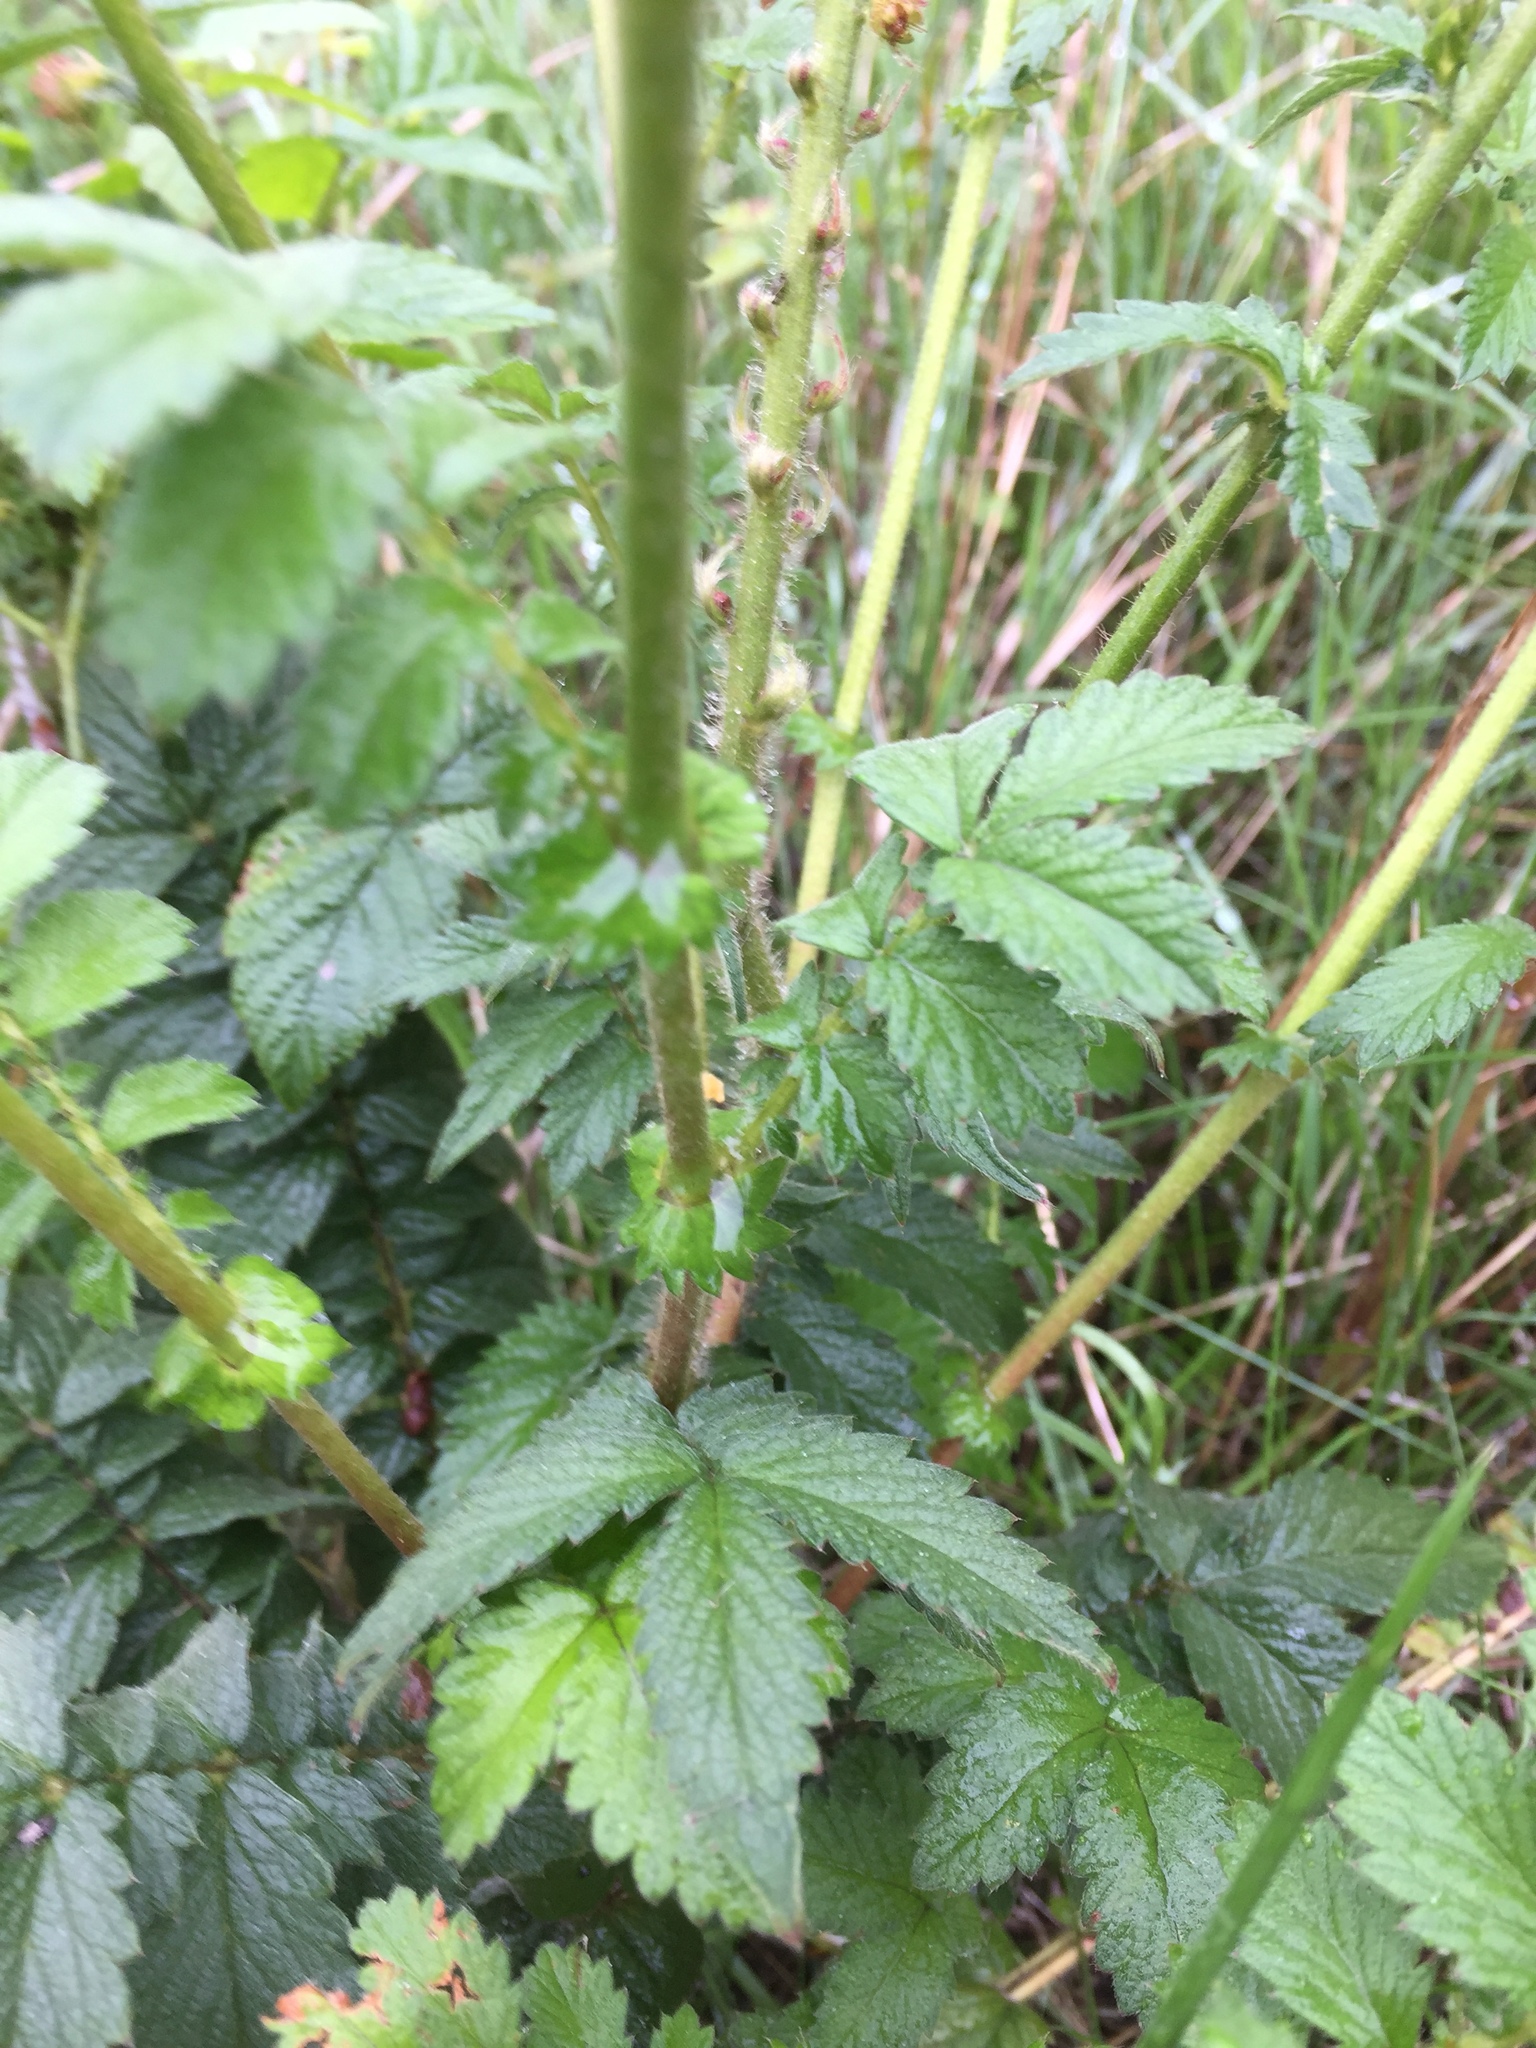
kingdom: Plantae
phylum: Tracheophyta
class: Magnoliopsida
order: Rosales
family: Rosaceae
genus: Agrimonia
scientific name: Agrimonia eupatoria
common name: Agrimony
